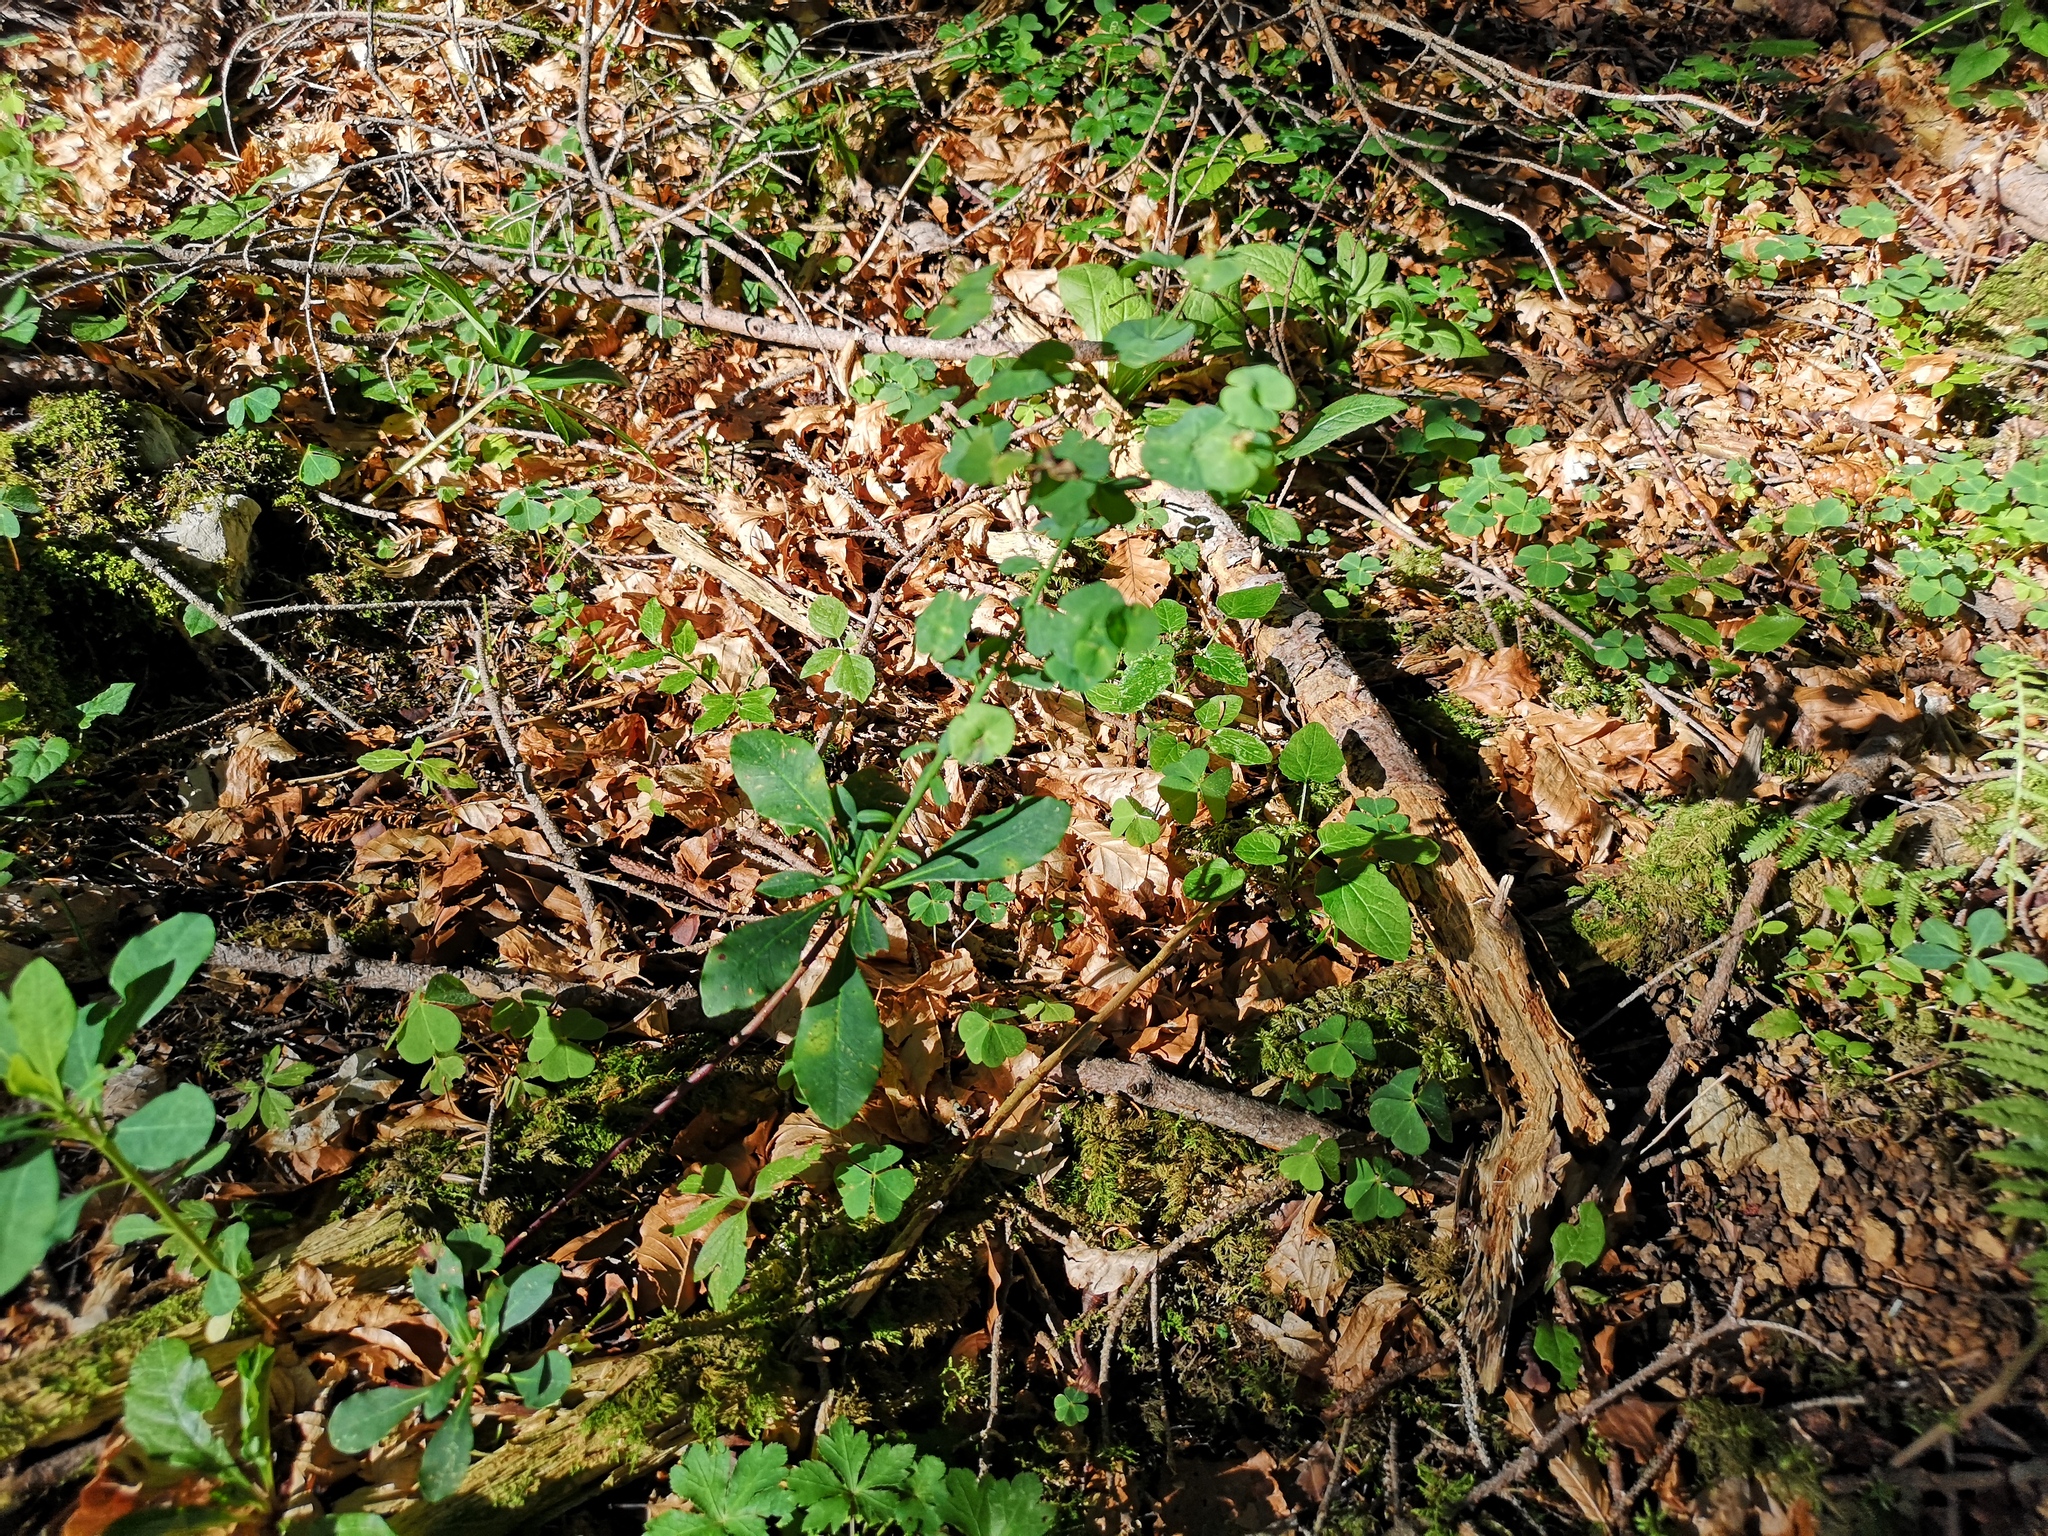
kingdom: Plantae
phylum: Tracheophyta
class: Magnoliopsida
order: Malpighiales
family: Euphorbiaceae
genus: Euphorbia
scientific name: Euphorbia amygdaloides
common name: Wood spurge
